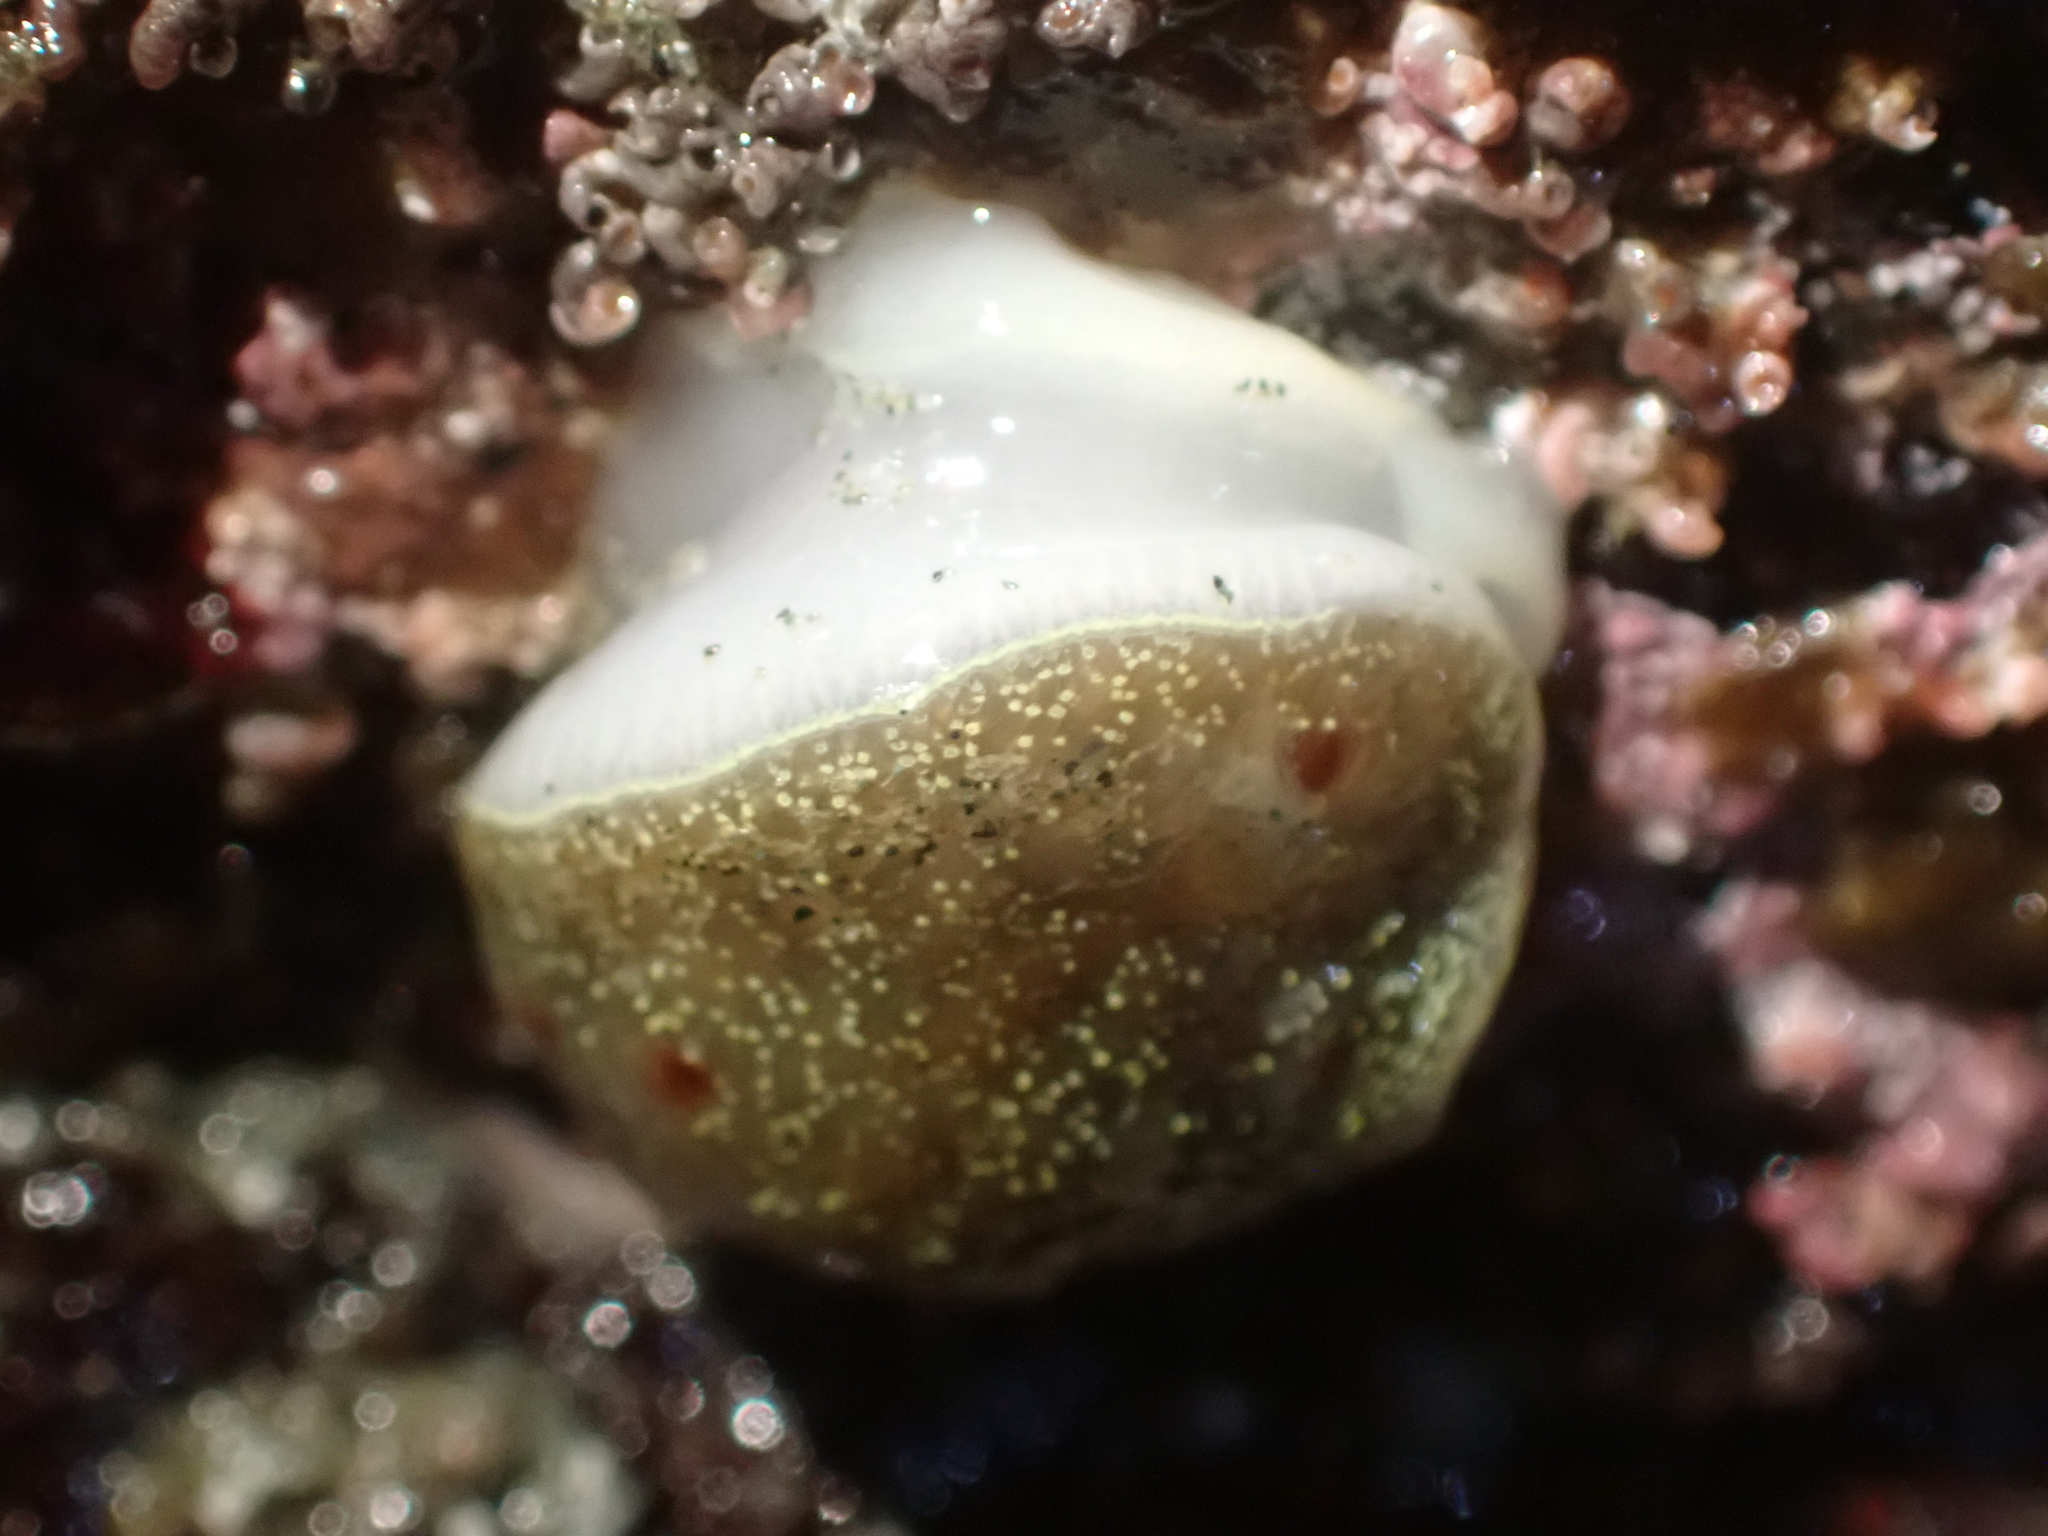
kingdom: Animalia
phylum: Mollusca
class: Gastropoda
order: Nudibranchia
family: Onchidorididae
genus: Acanthodoris
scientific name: Acanthodoris nanaimoensis
